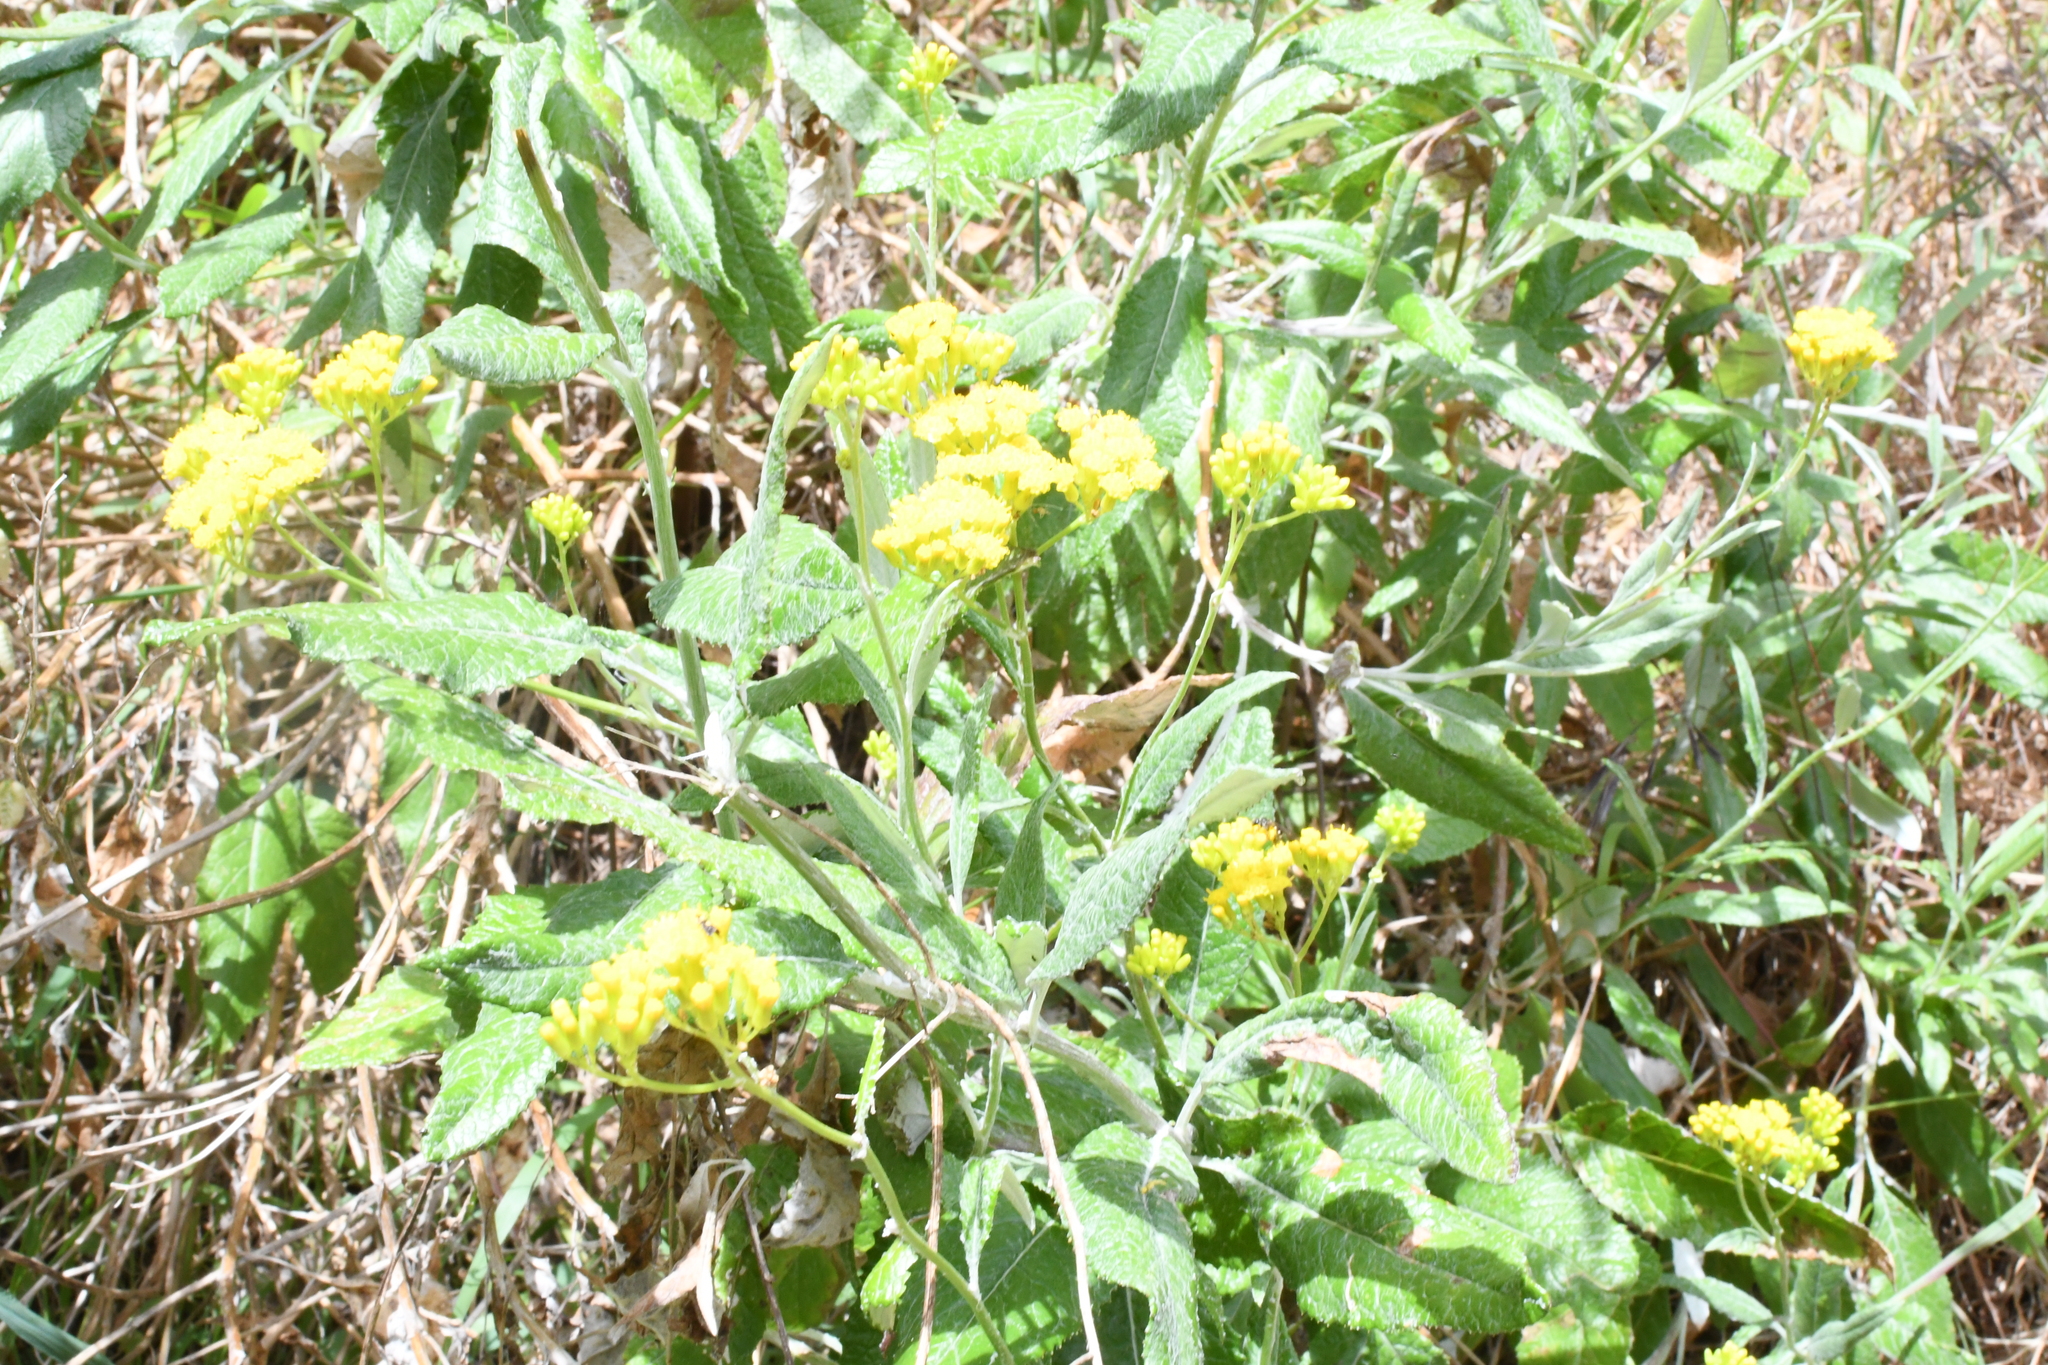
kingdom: Plantae
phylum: Tracheophyta
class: Magnoliopsida
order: Asterales
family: Asteraceae
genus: Senecio
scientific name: Senecio hypoleucus
